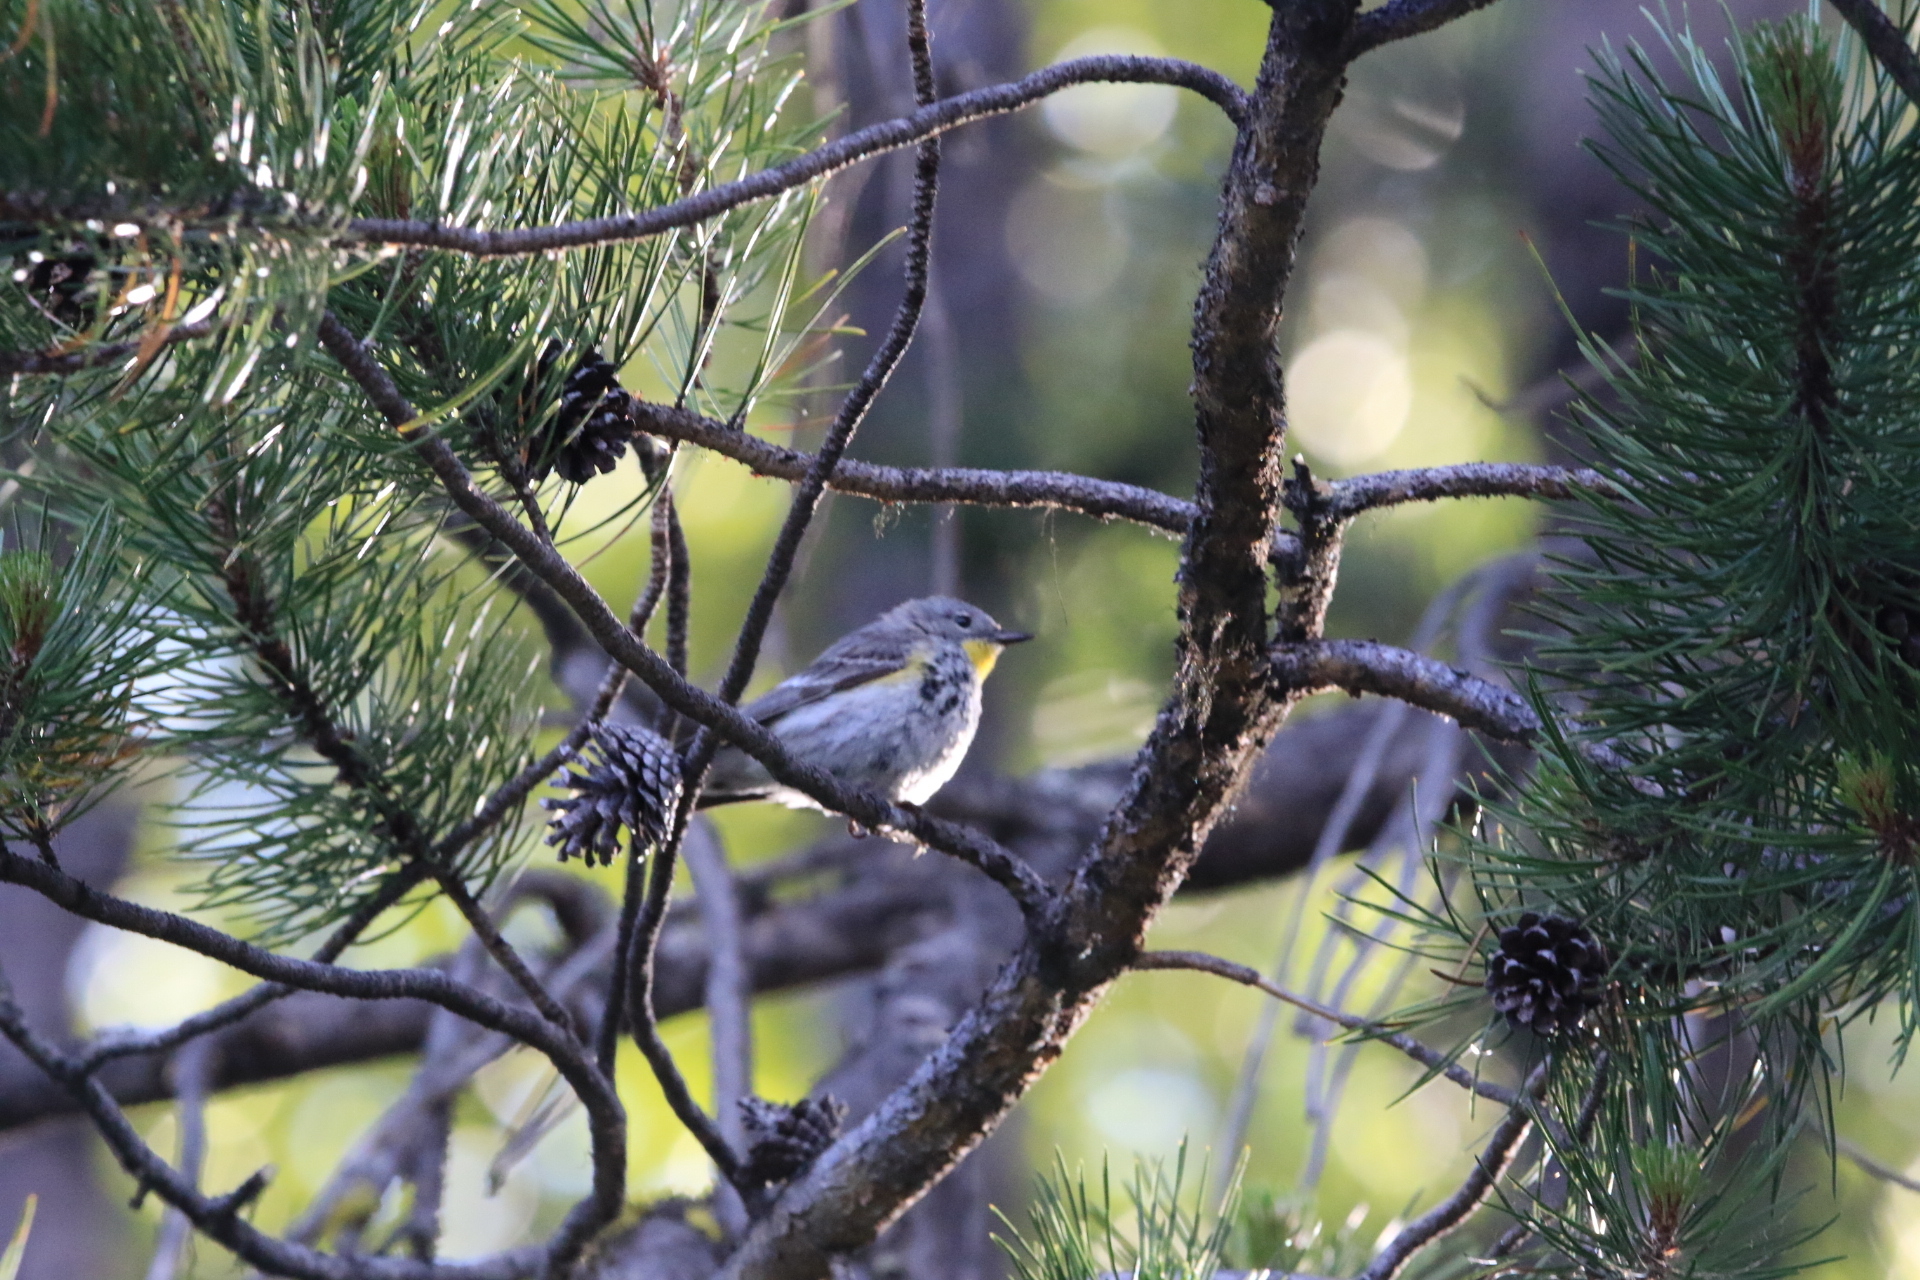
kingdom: Animalia
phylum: Chordata
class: Aves
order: Passeriformes
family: Parulidae
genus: Setophaga
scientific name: Setophaga auduboni
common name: Audubon's warbler
